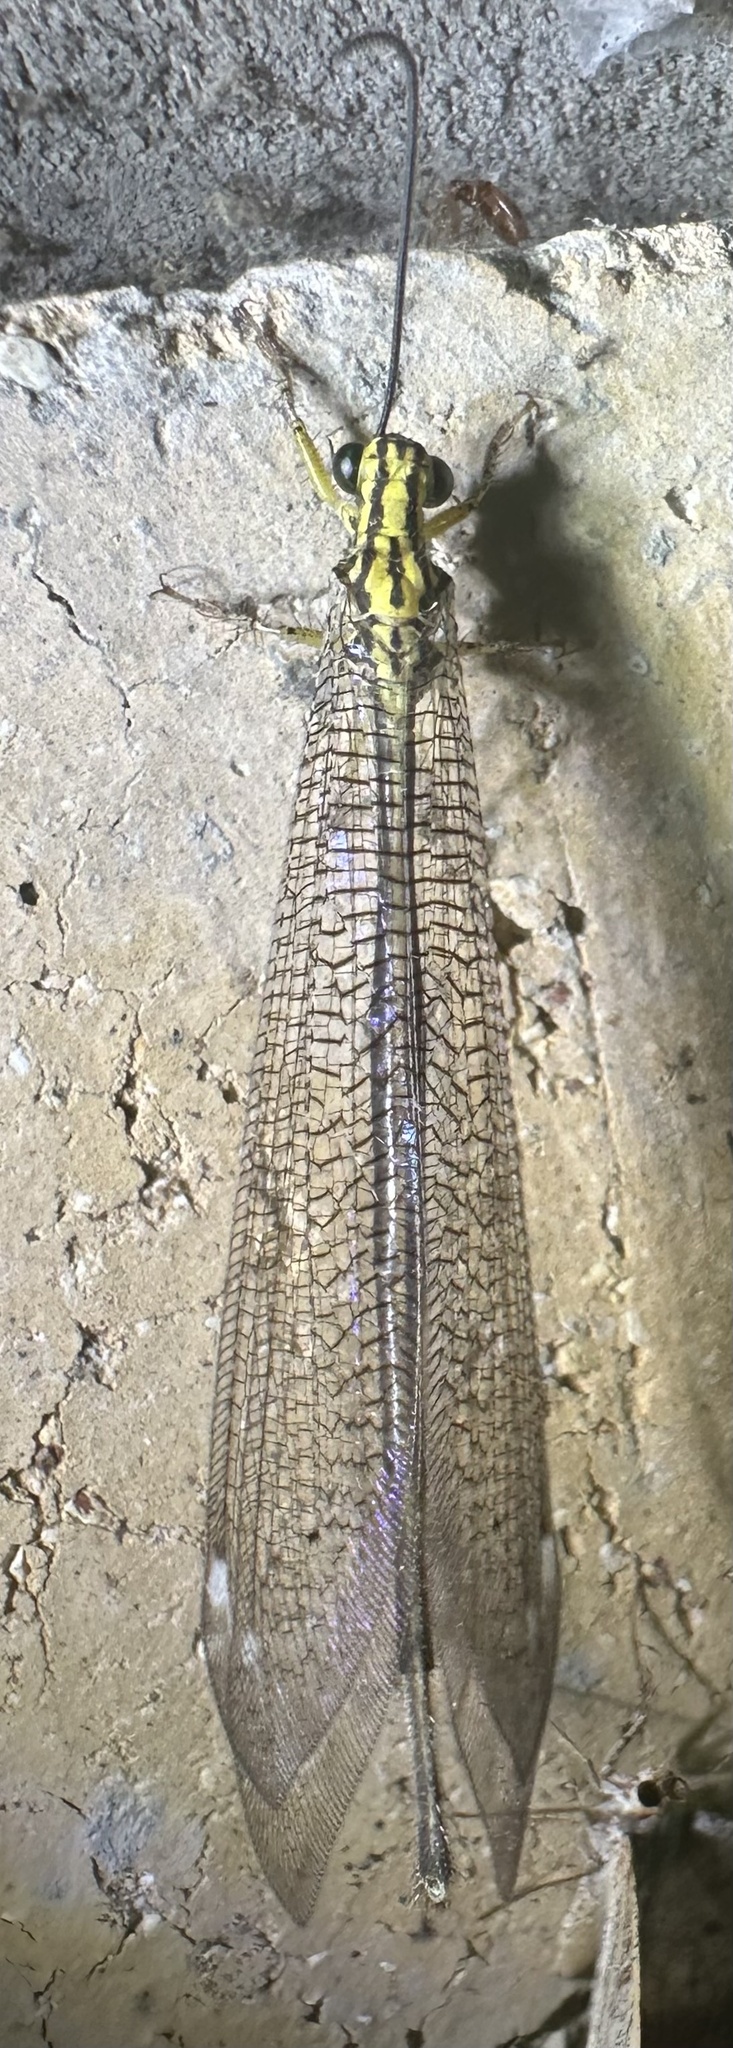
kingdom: Animalia
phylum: Arthropoda
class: Insecta
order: Neuroptera
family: Myrmeleontidae
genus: Banyutus
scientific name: Banyutus lethalis
